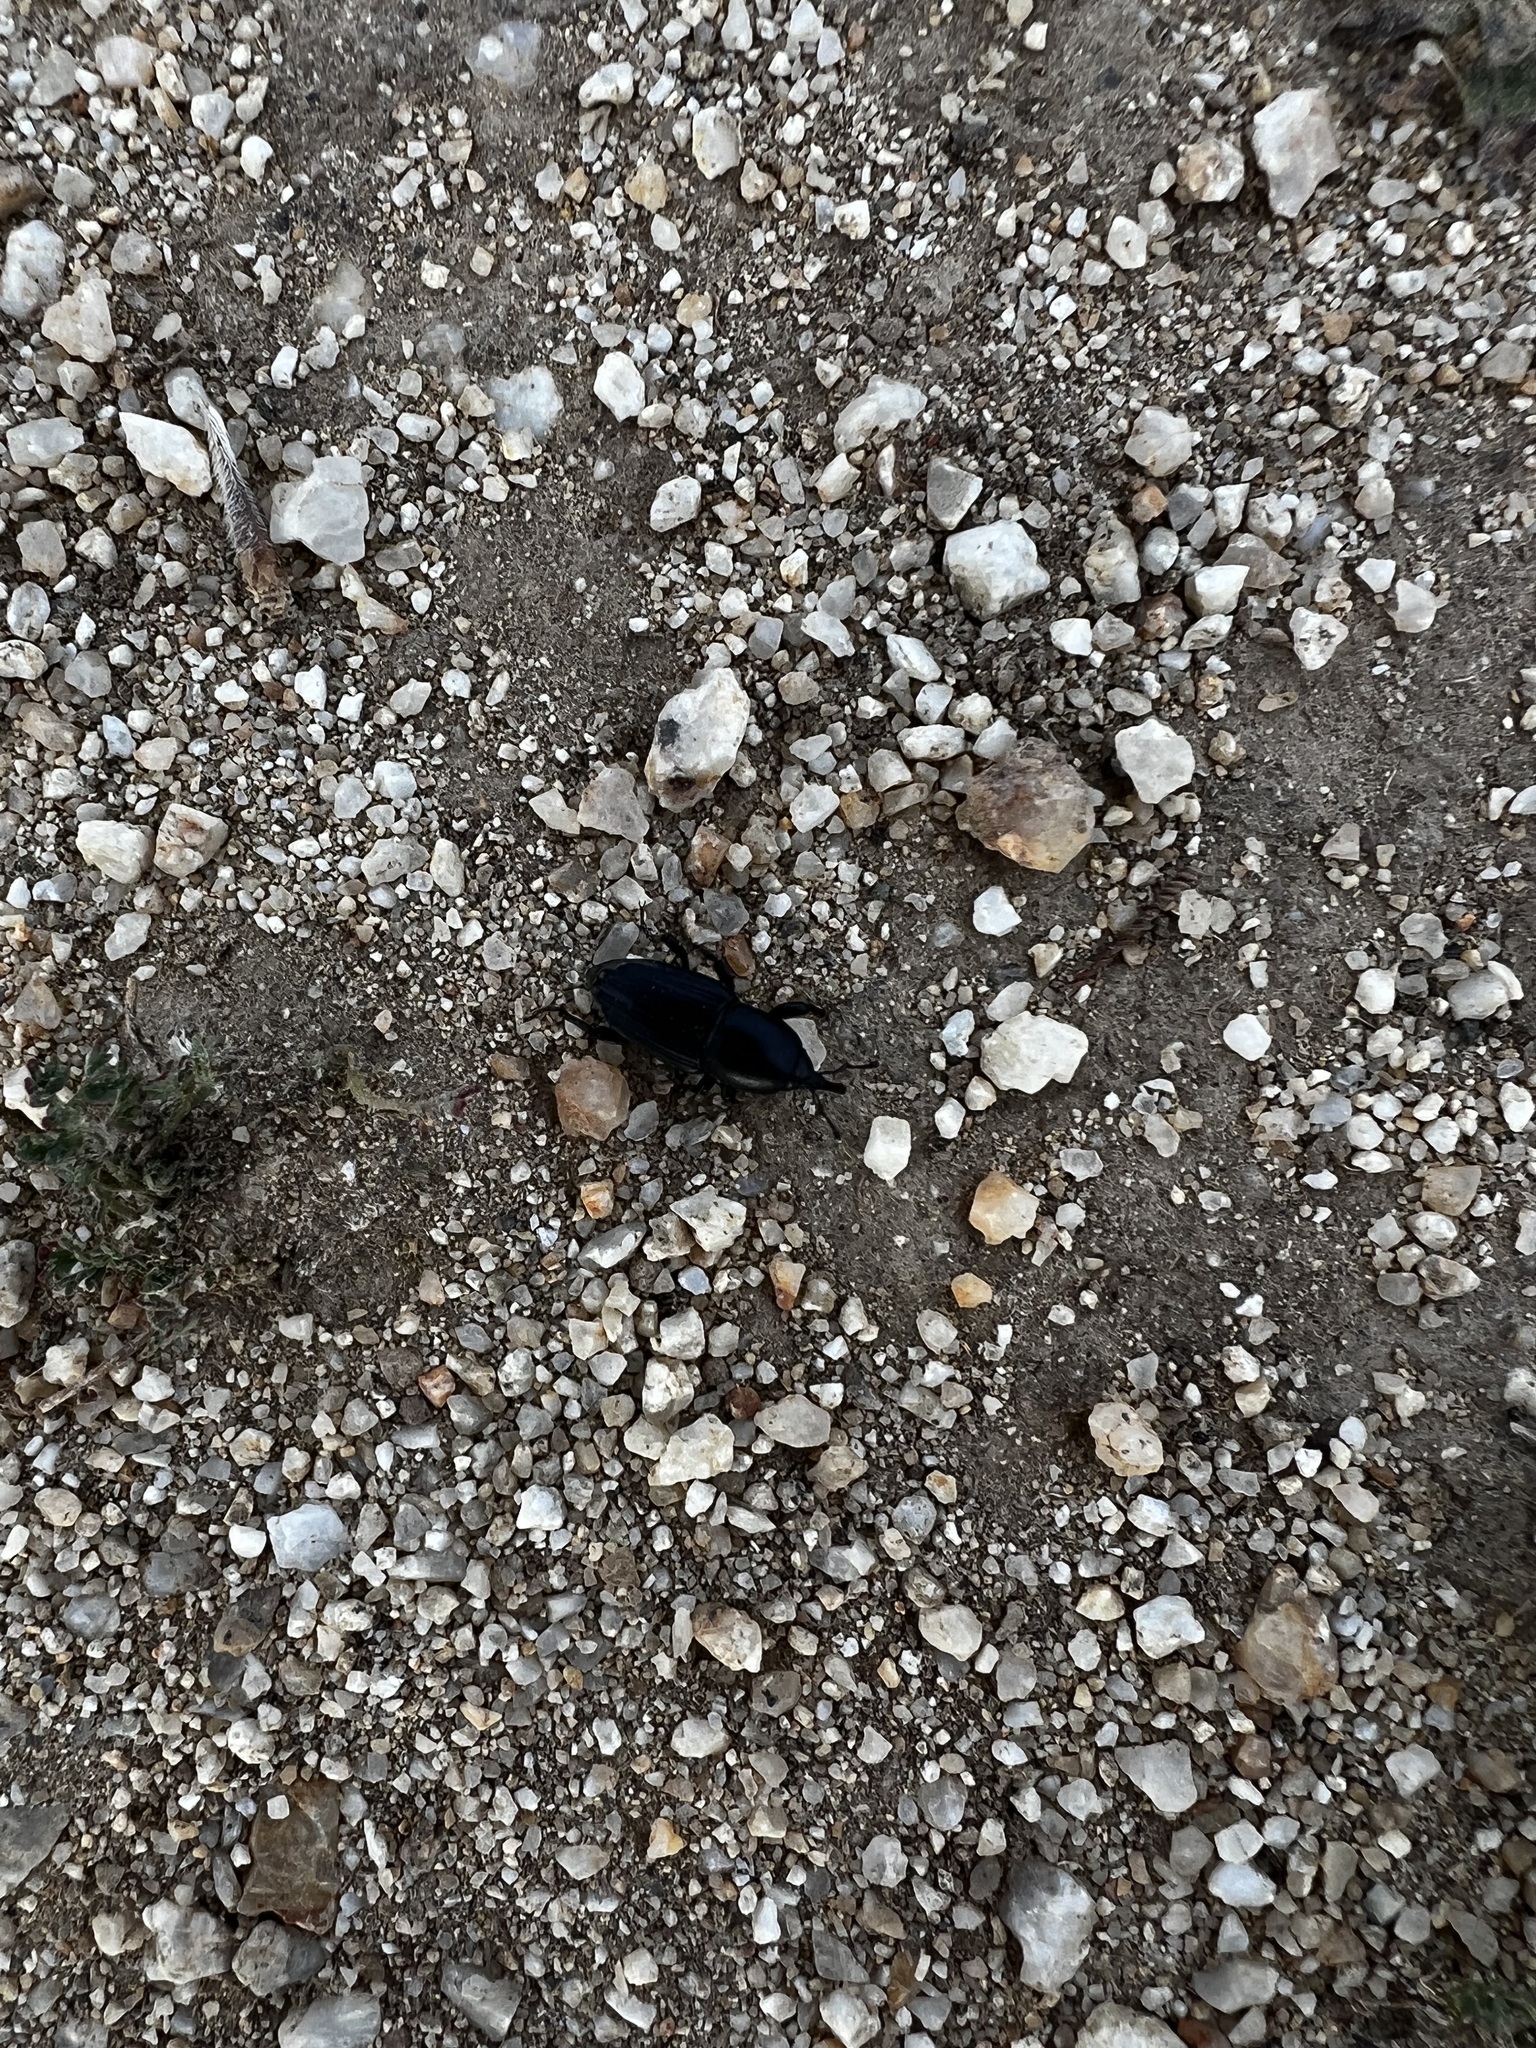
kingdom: Animalia
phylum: Arthropoda
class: Insecta
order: Coleoptera
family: Dryophthoridae
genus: Scyphophorus
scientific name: Scyphophorus acupunctatus
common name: Weevil
